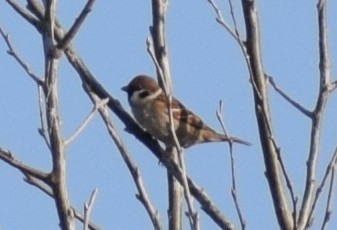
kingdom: Animalia
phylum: Chordata
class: Aves
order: Passeriformes
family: Passeridae
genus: Passer
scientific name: Passer montanus
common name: Eurasian tree sparrow
